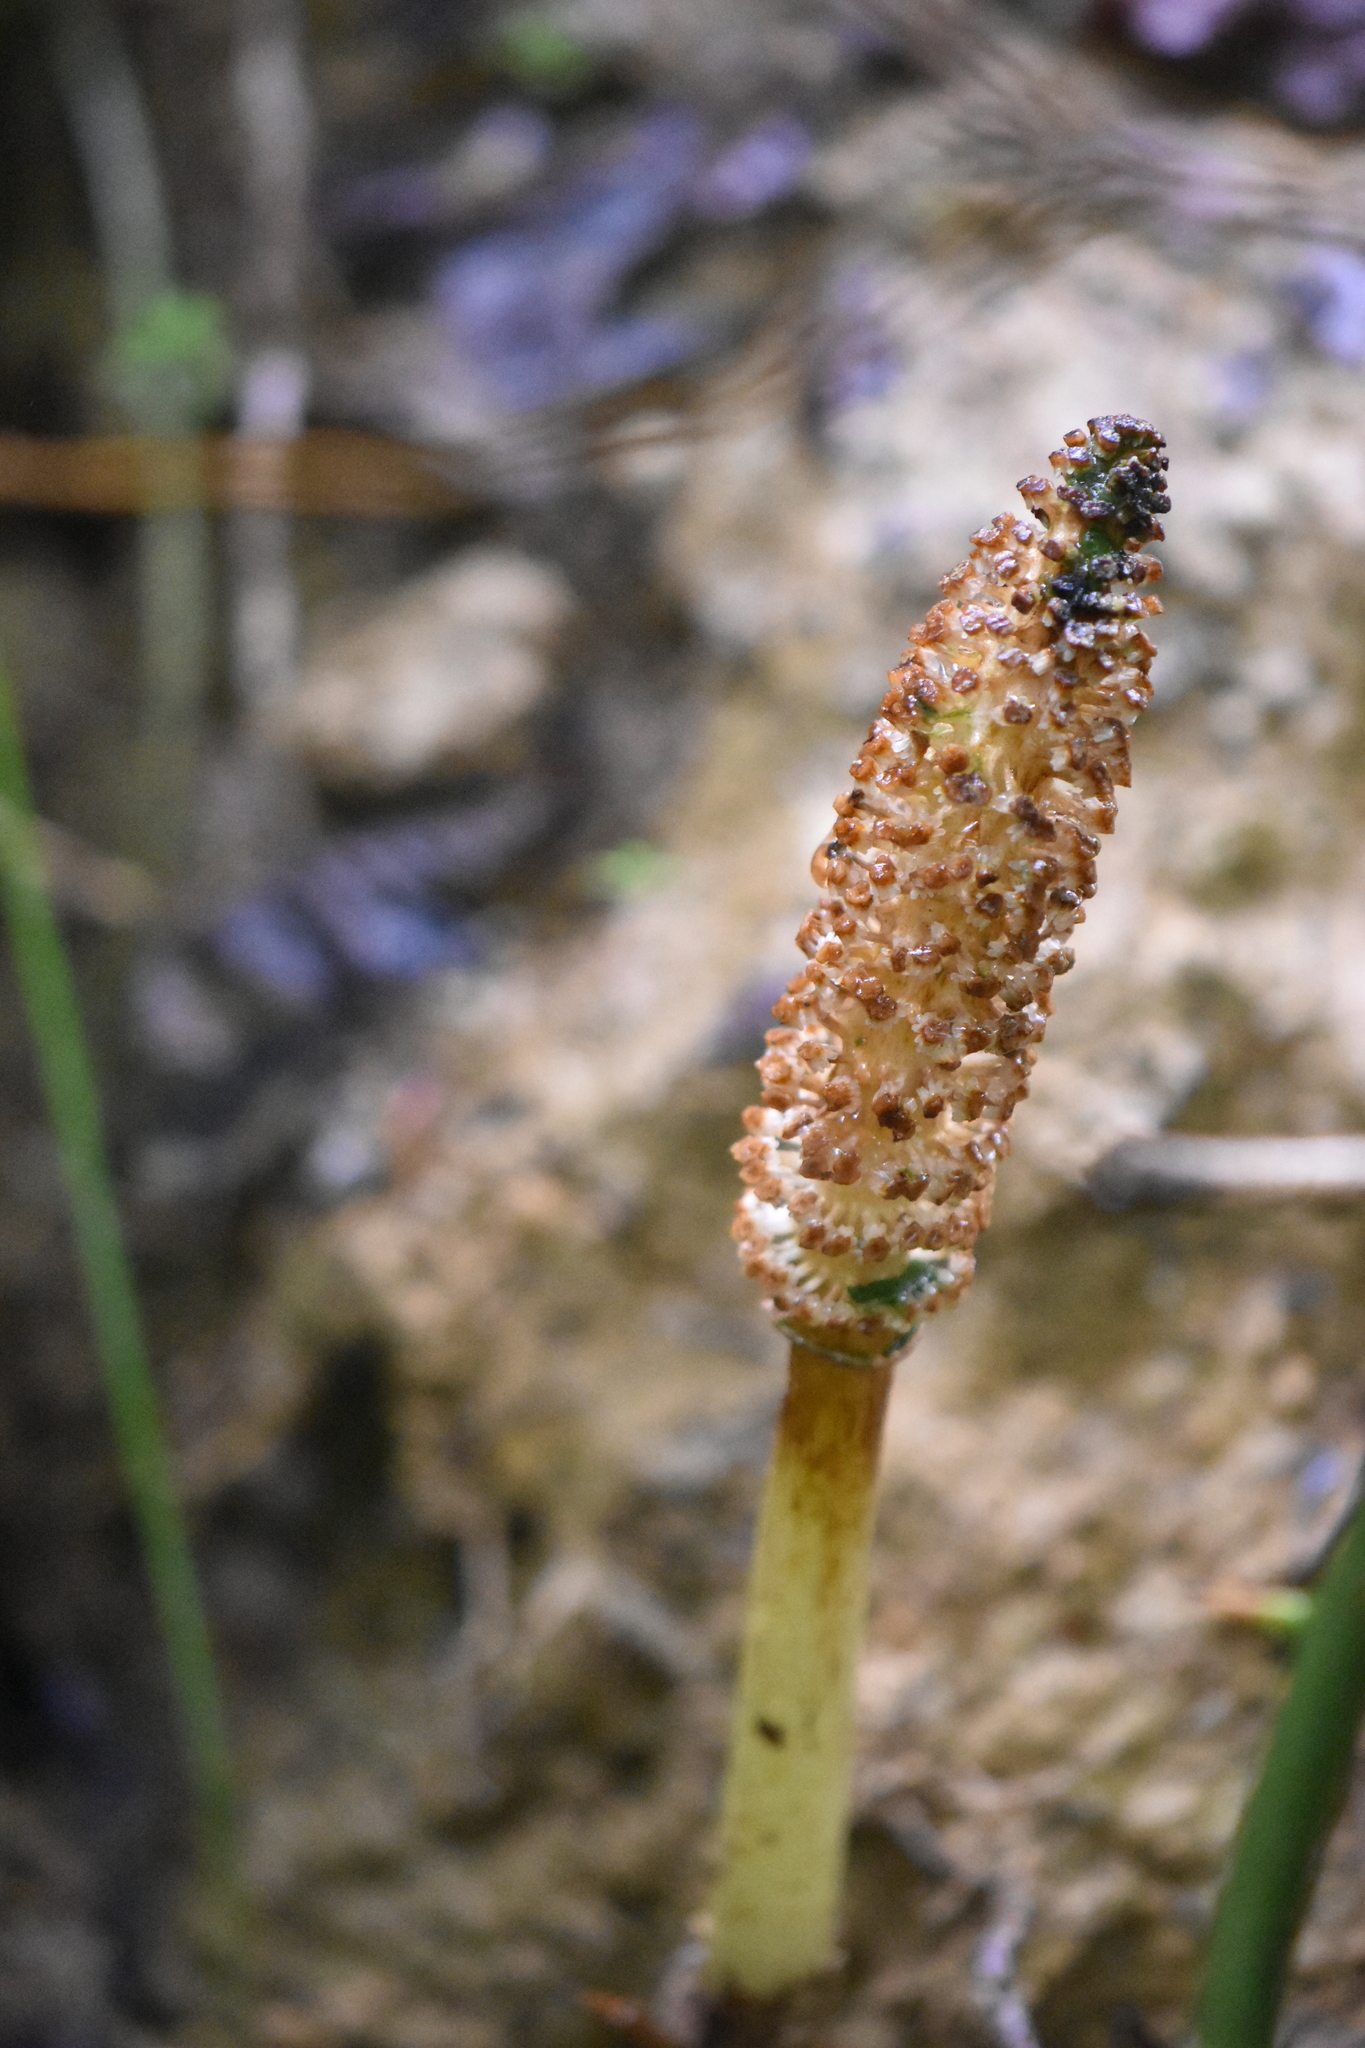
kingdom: Plantae
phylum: Tracheophyta
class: Polypodiopsida
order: Equisetales
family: Equisetaceae
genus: Equisetum
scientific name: Equisetum arvense
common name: Field horsetail
